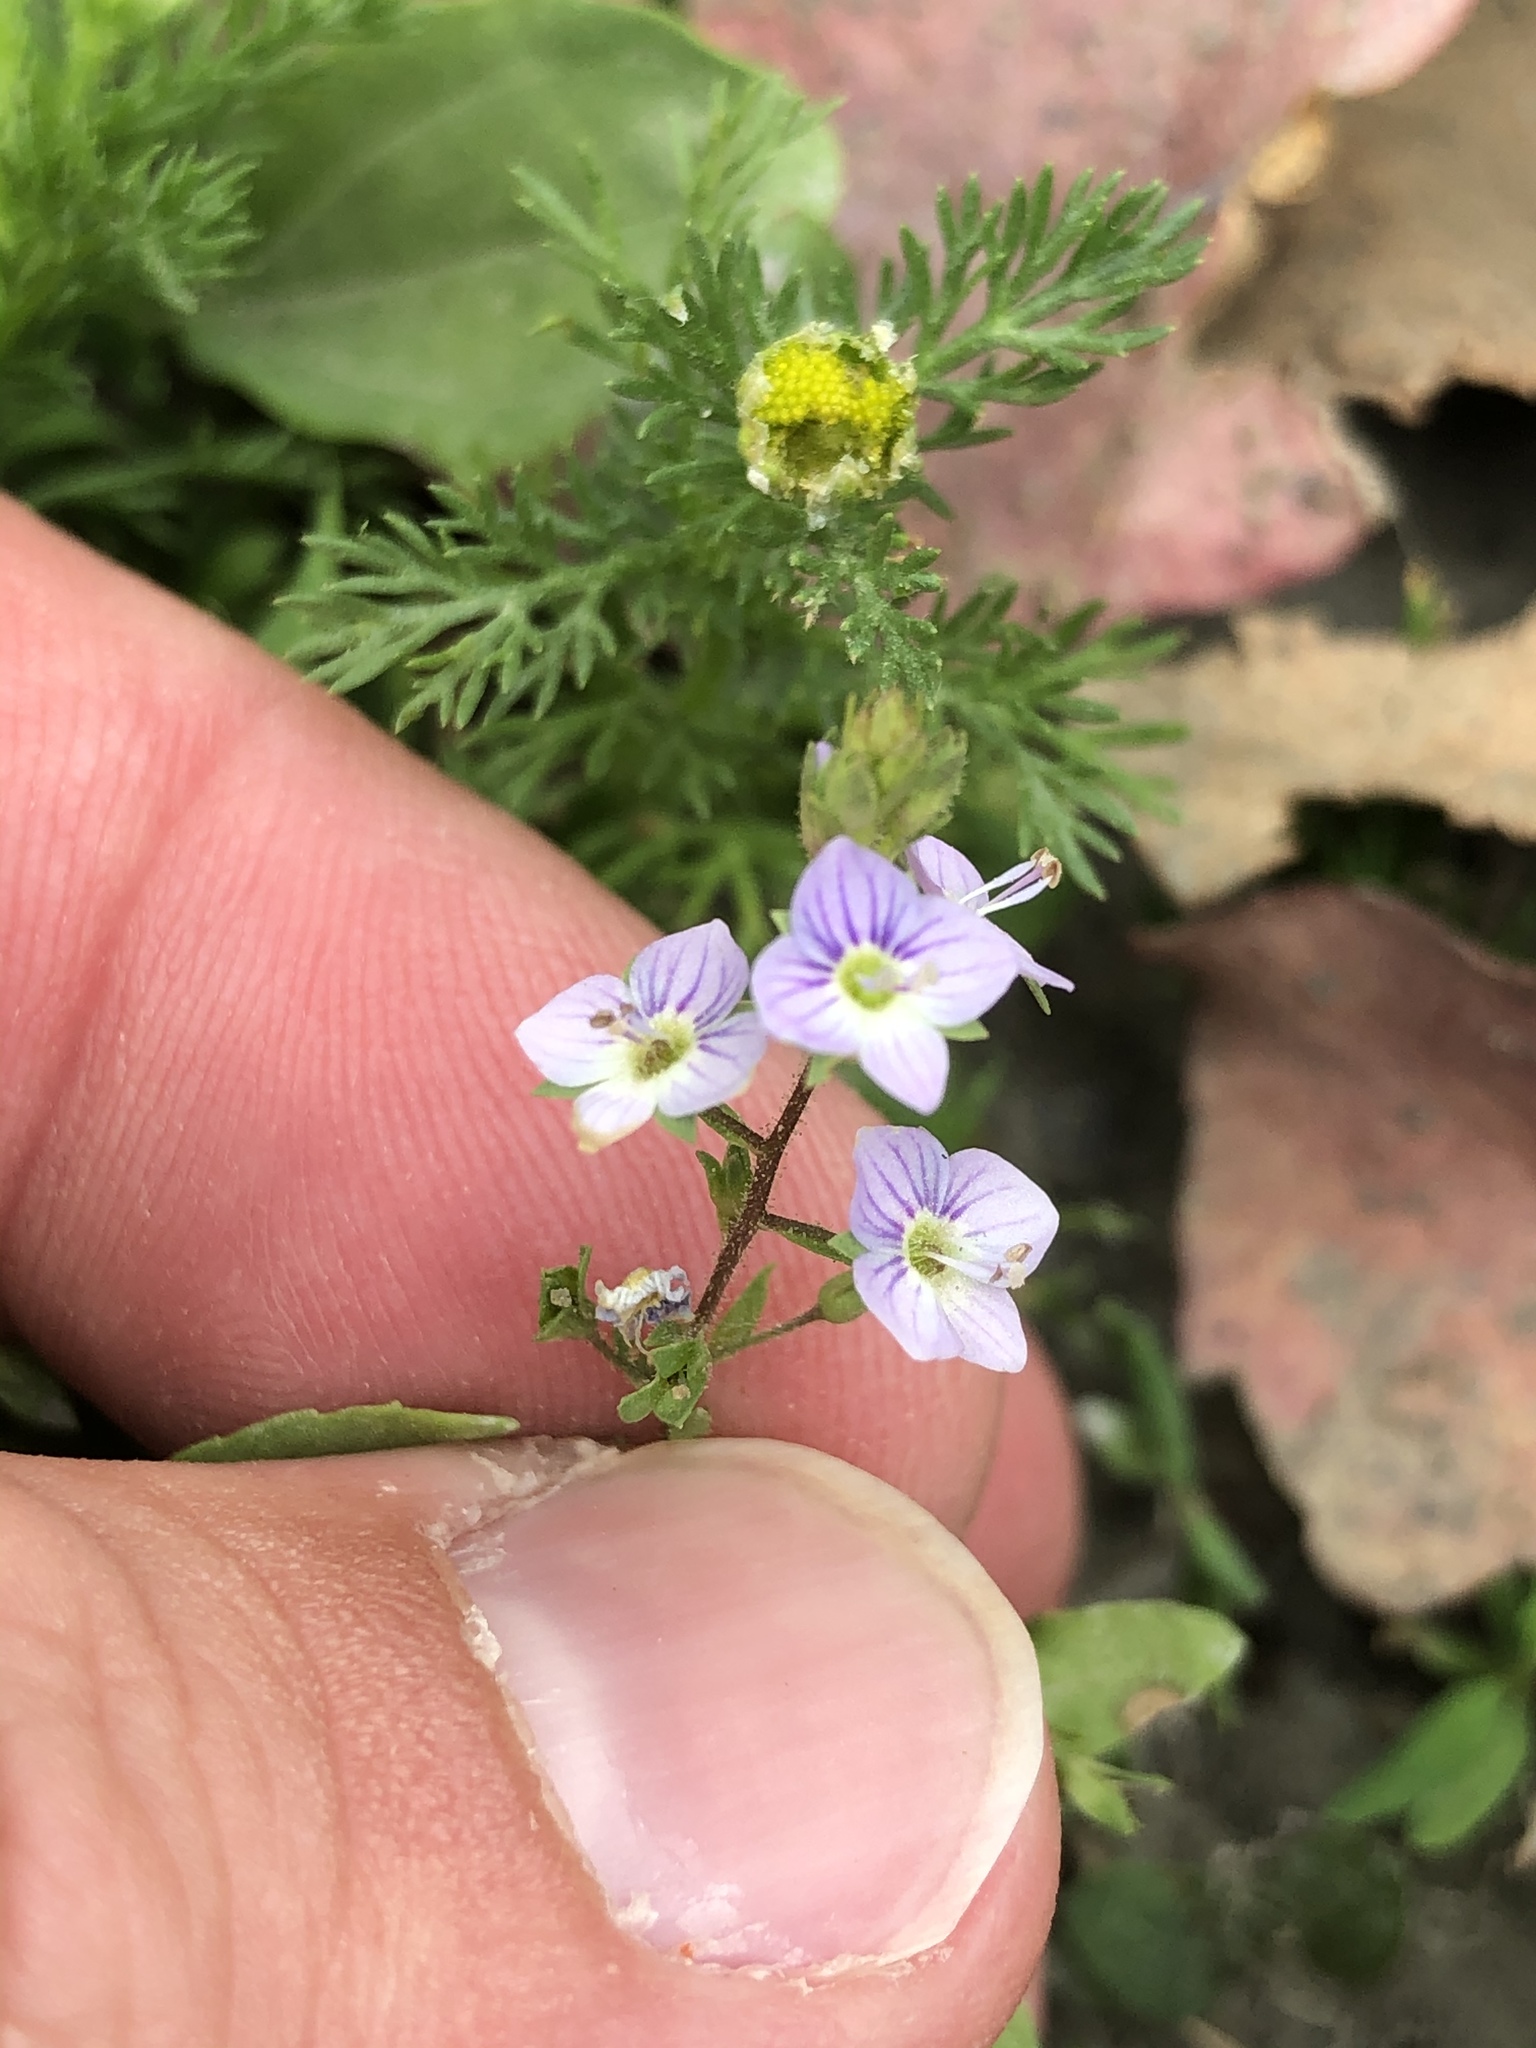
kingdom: Plantae
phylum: Tracheophyta
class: Magnoliopsida
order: Lamiales
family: Plantaginaceae
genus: Veronica
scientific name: Veronica anagallis-aquatica
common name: Water speedwell
